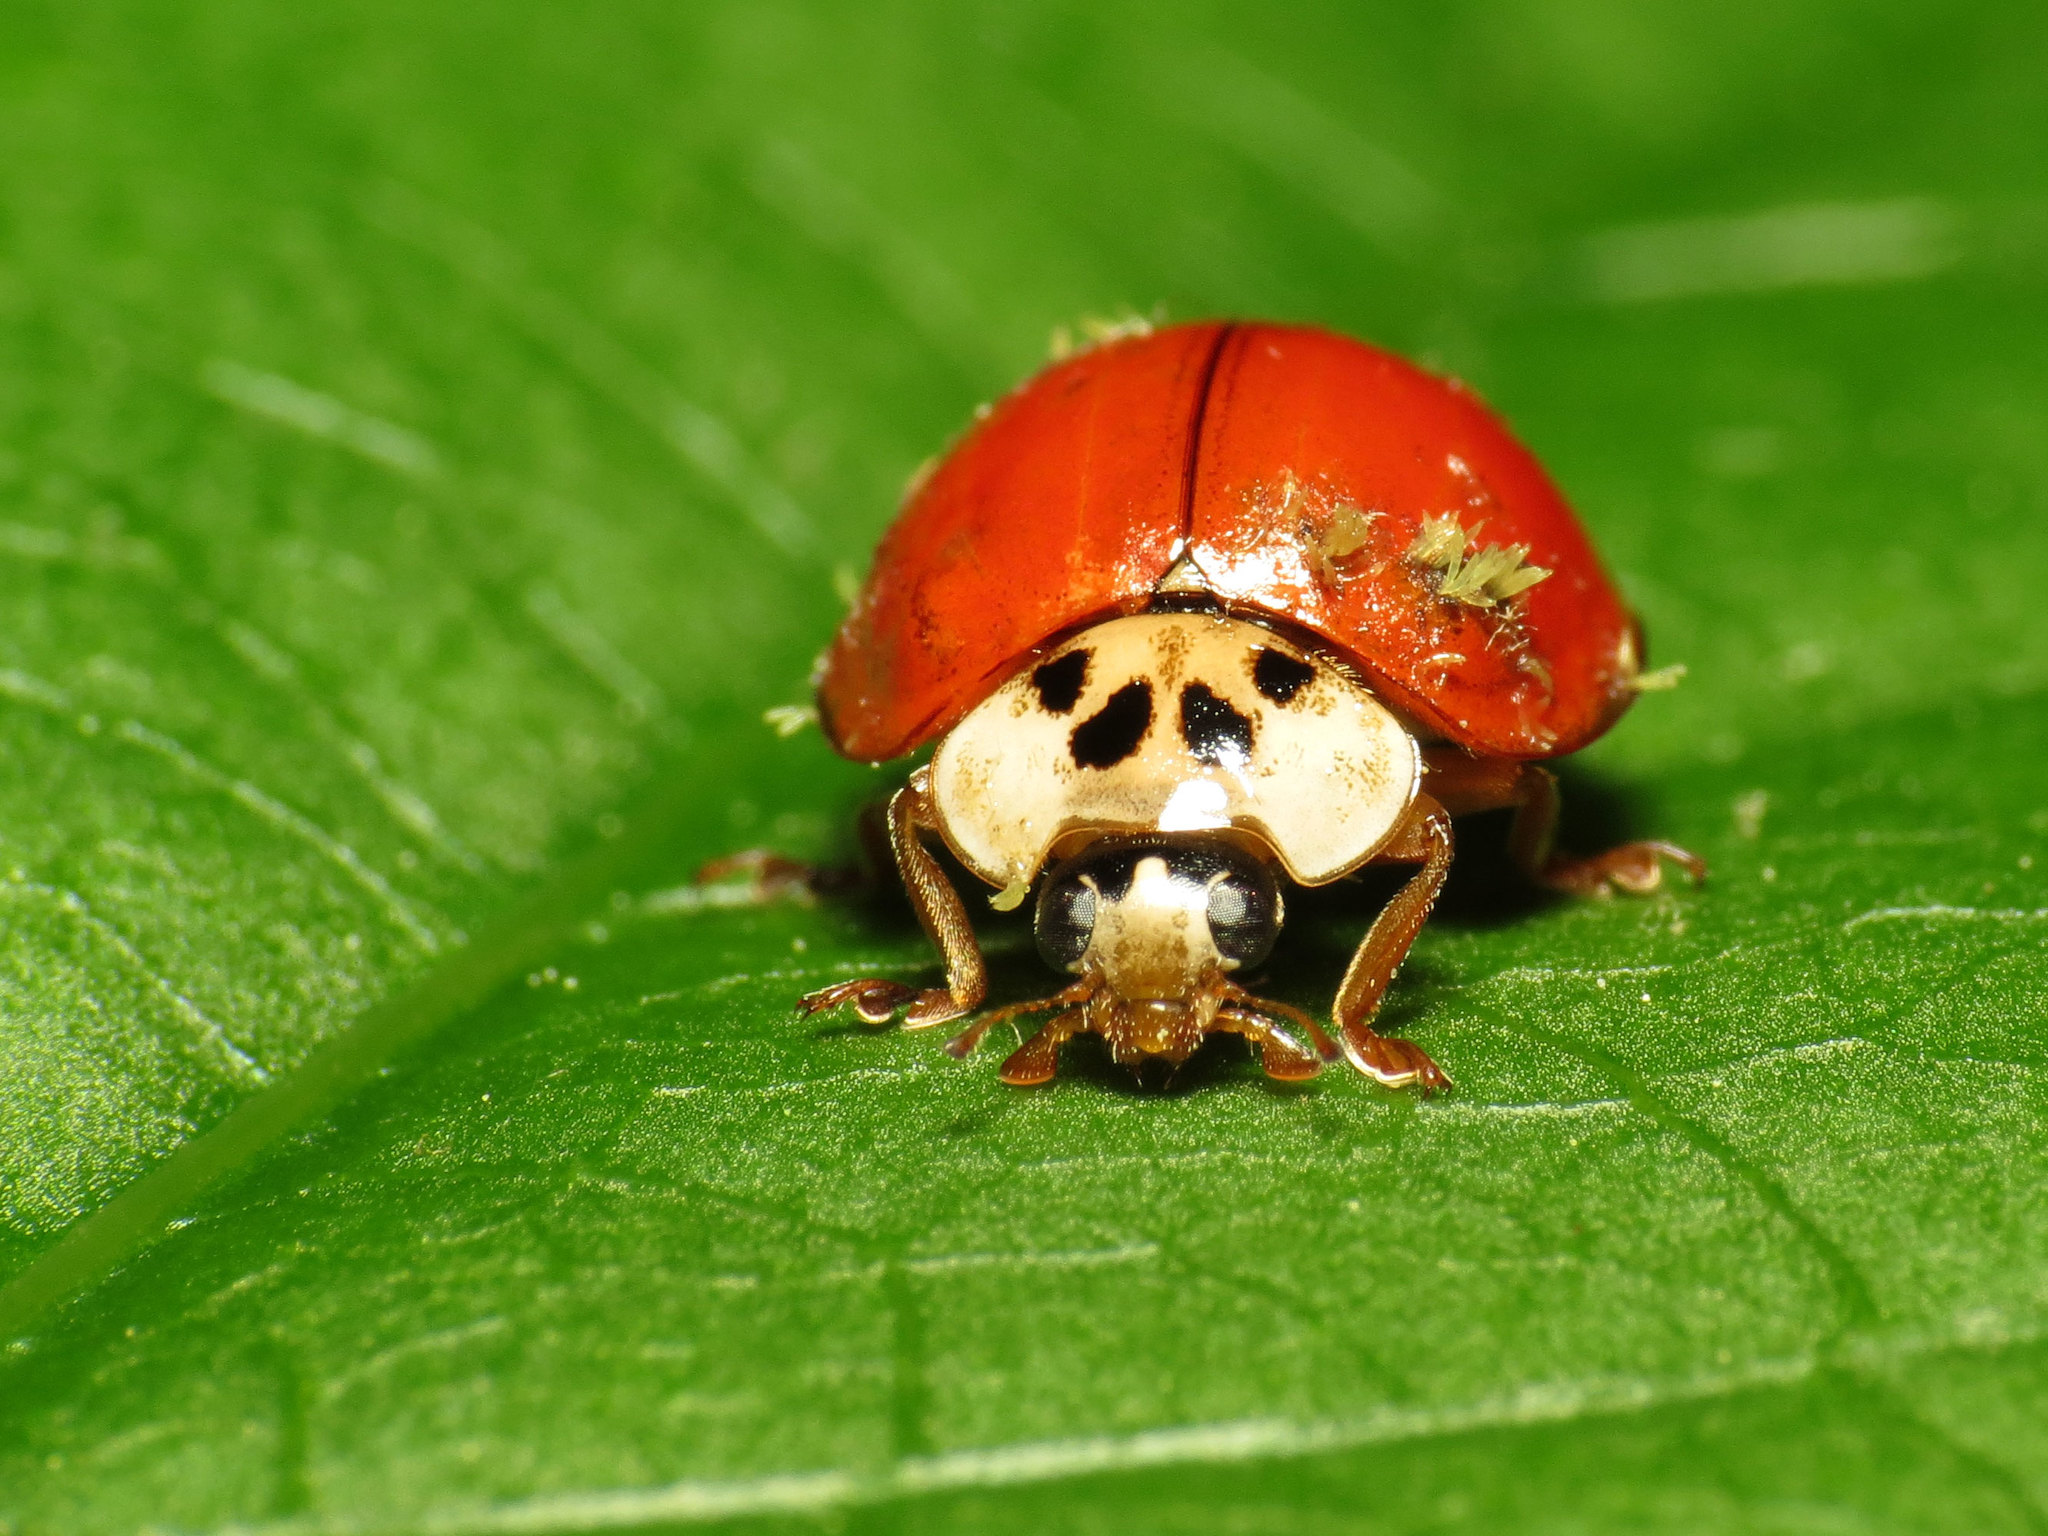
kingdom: Animalia
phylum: Arthropoda
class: Insecta
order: Coleoptera
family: Coccinellidae
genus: Harmonia
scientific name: Harmonia axyridis
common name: Harlequin ladybird
